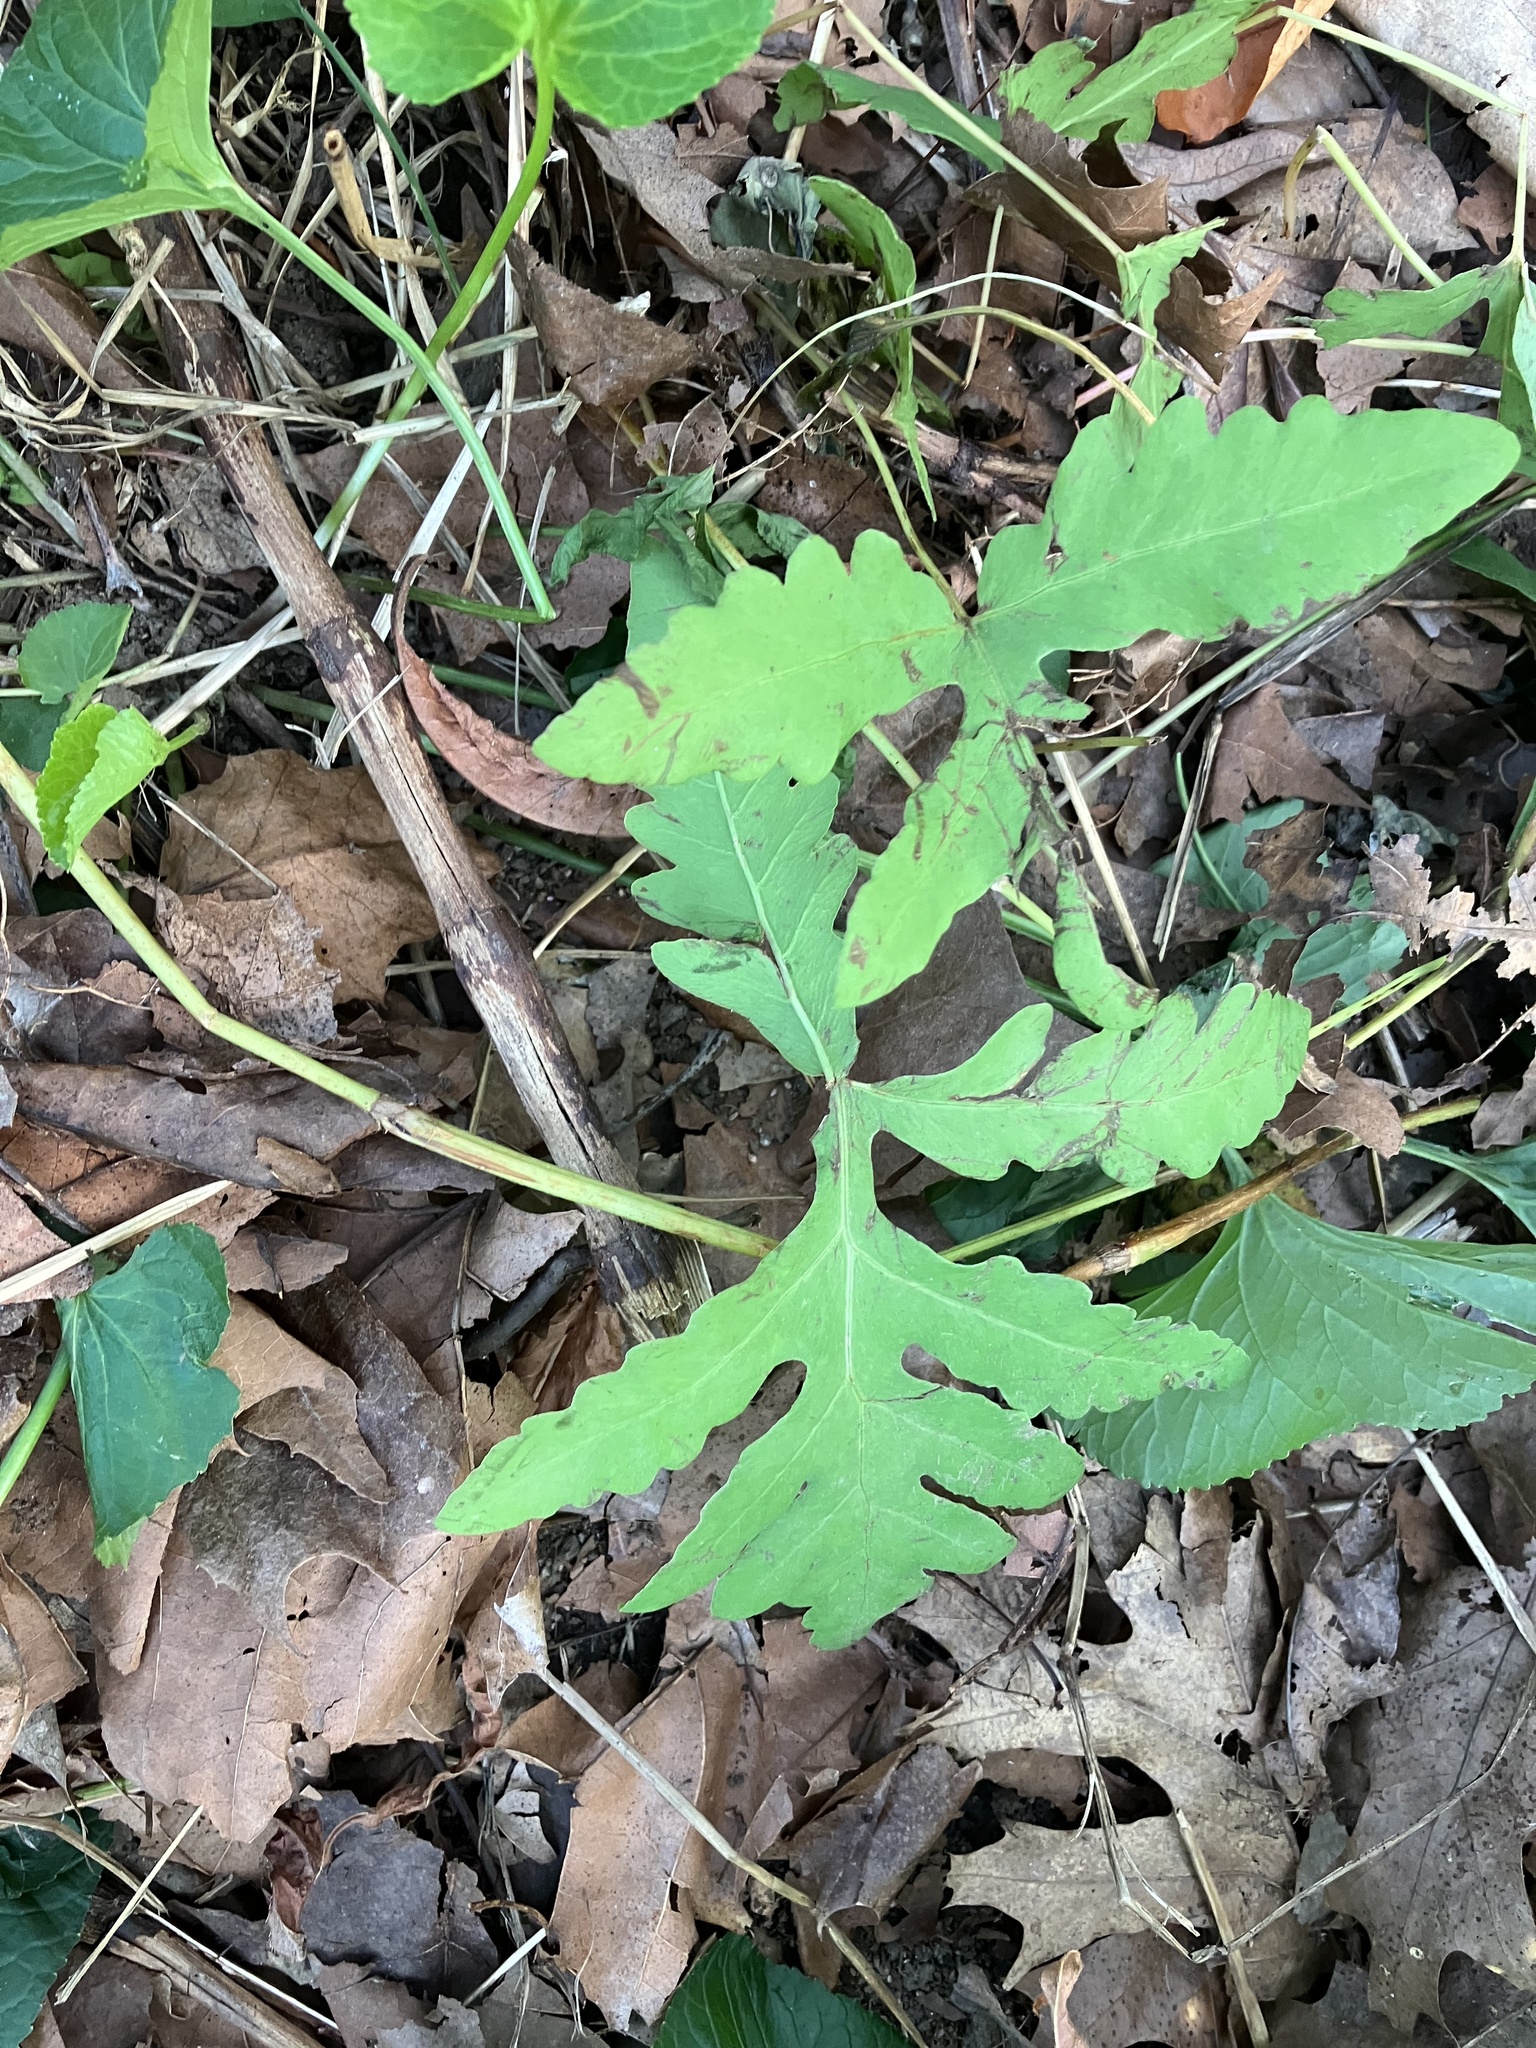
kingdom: Plantae
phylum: Tracheophyta
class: Polypodiopsida
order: Polypodiales
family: Onocleaceae
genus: Onoclea
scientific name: Onoclea sensibilis
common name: Sensitive fern
